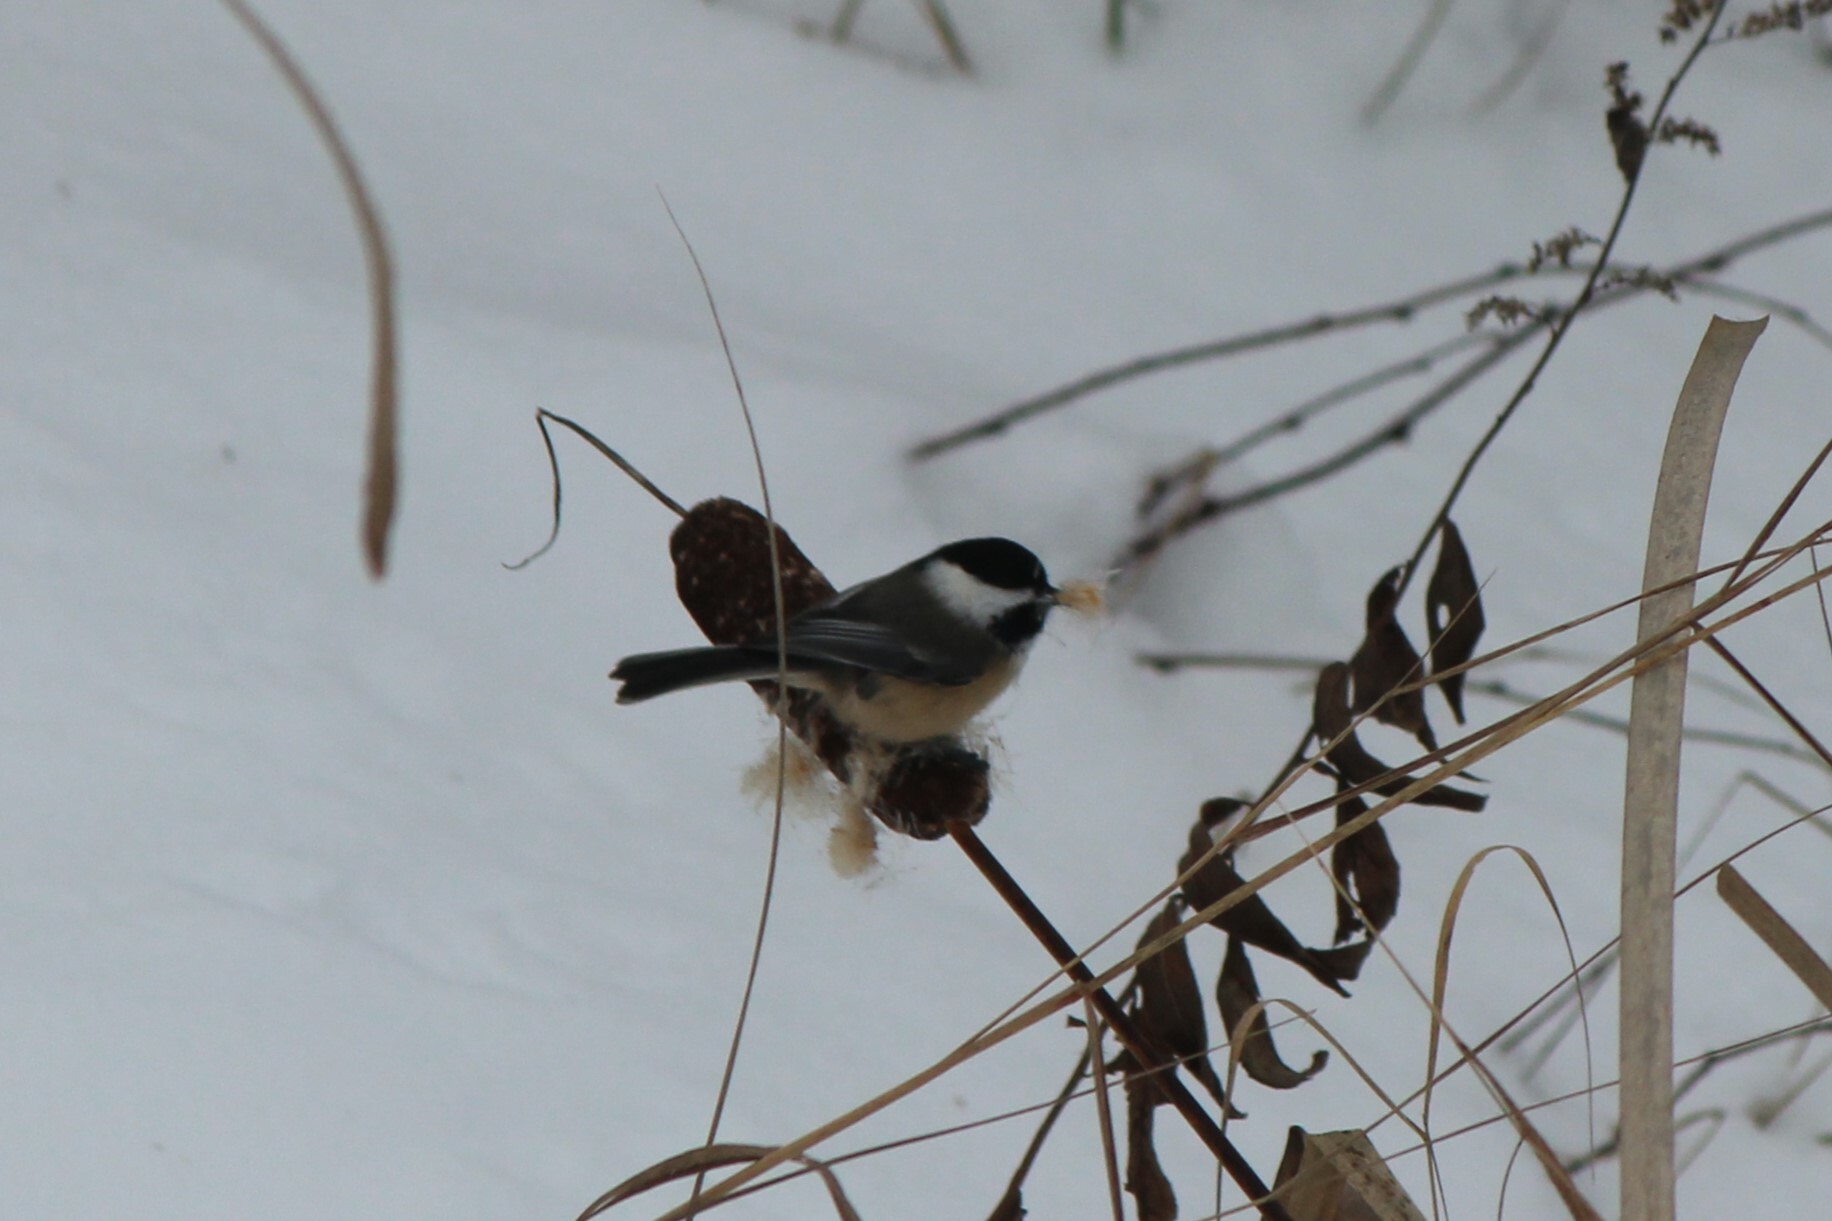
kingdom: Animalia
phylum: Chordata
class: Aves
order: Passeriformes
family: Paridae
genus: Poecile
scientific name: Poecile atricapillus
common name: Black-capped chickadee
